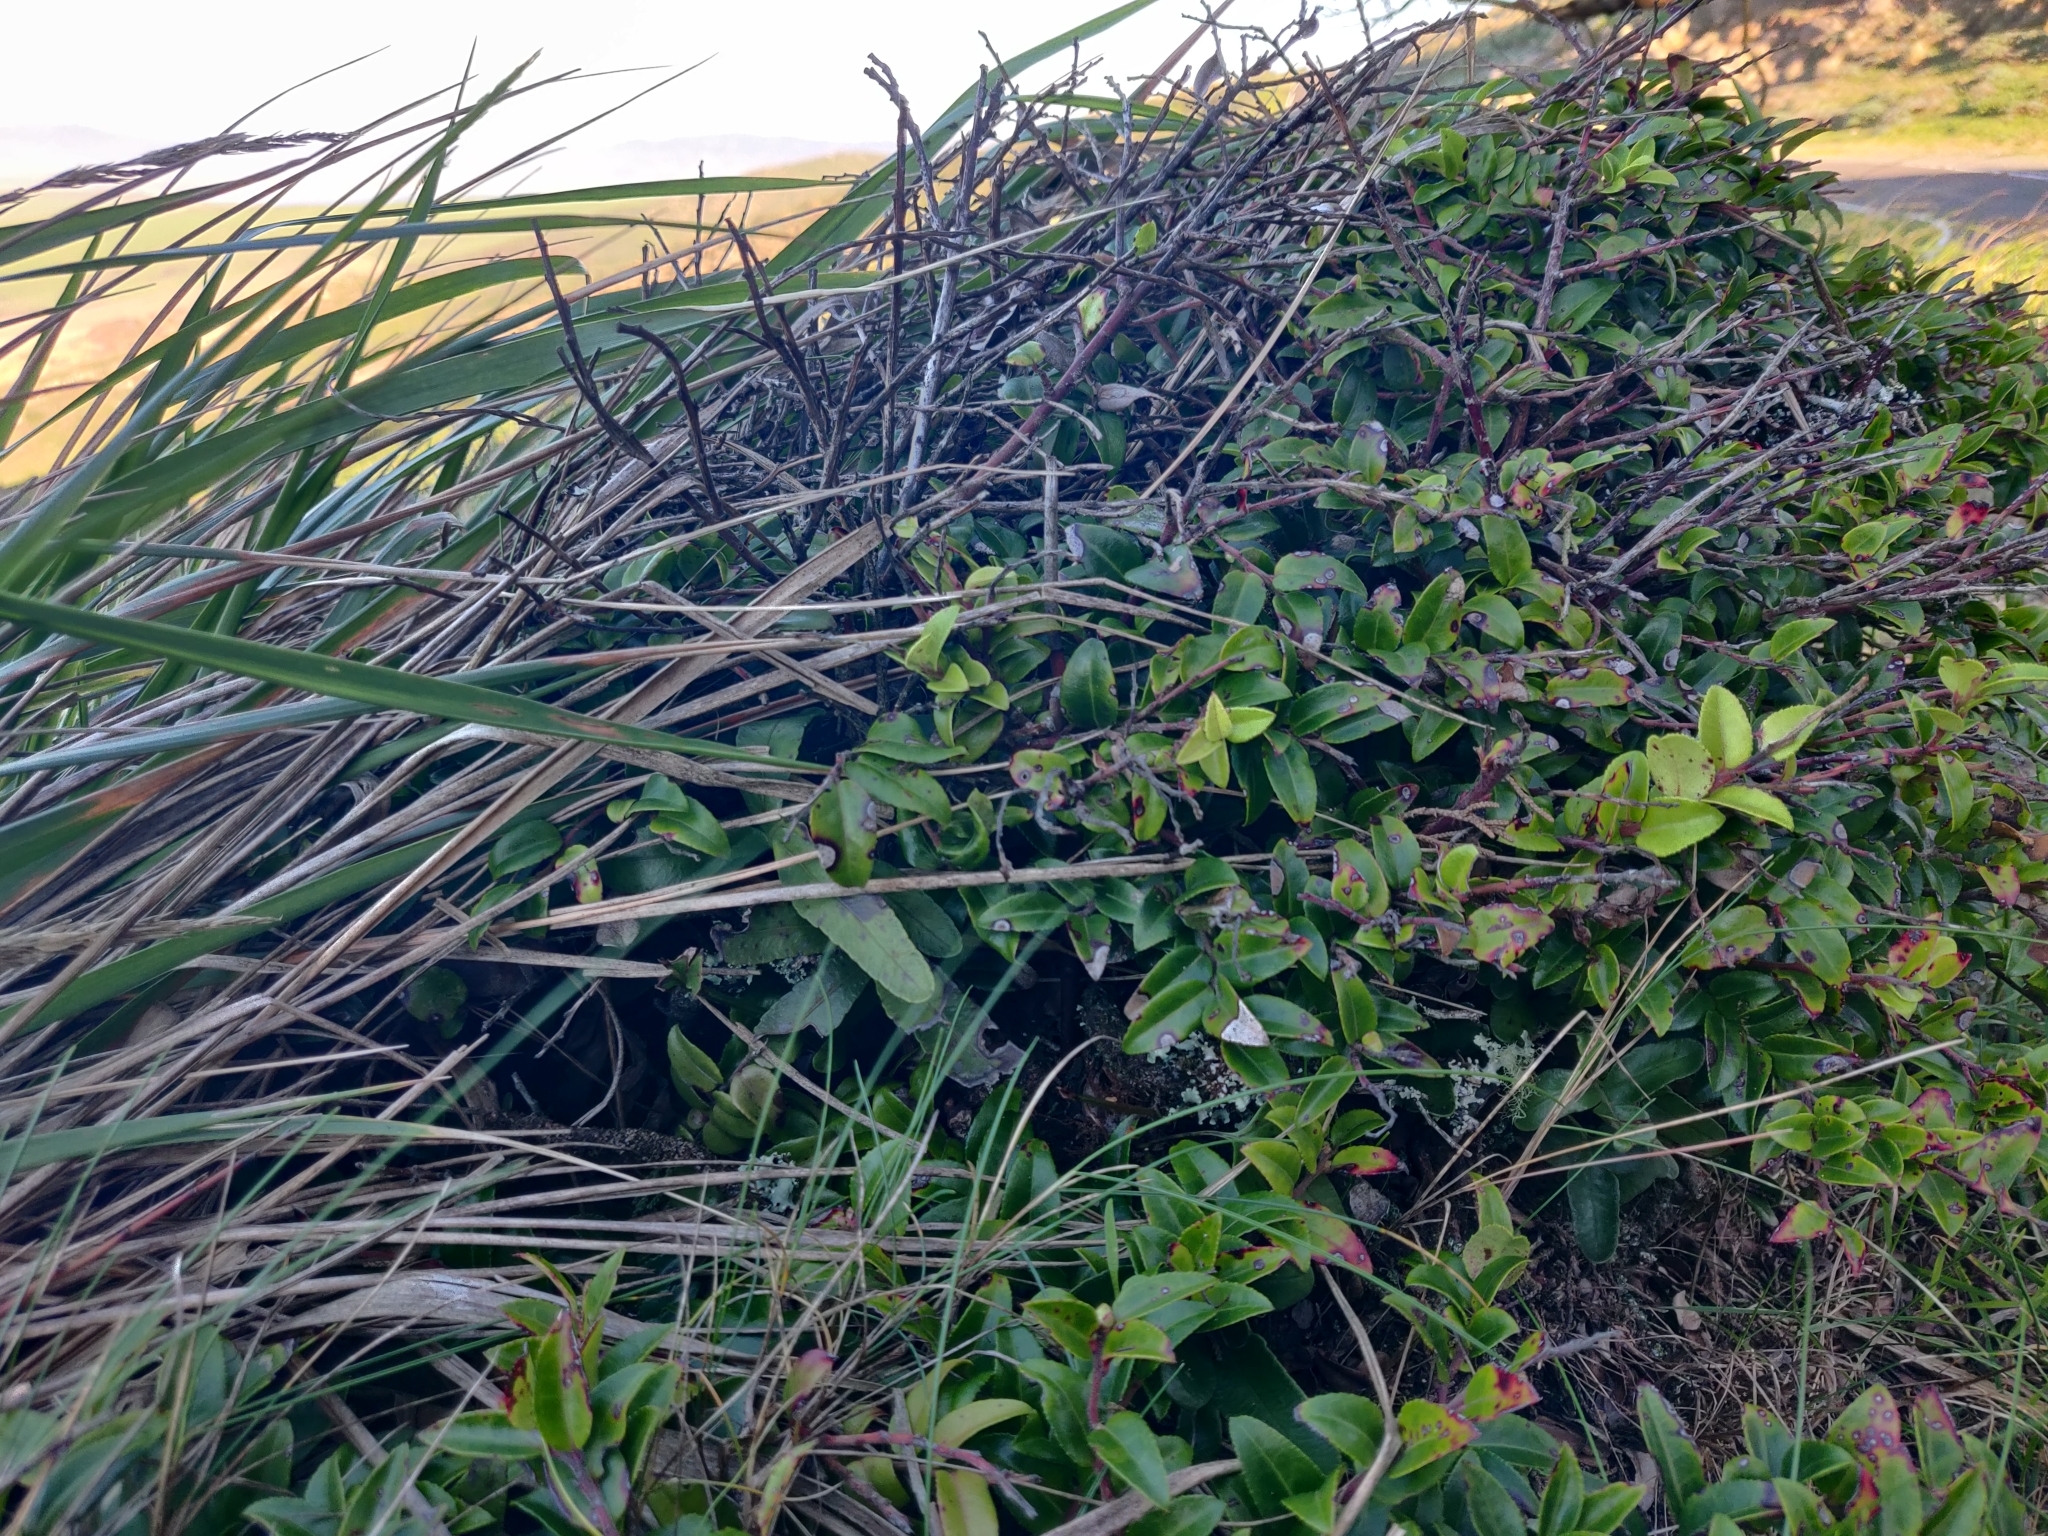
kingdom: Plantae
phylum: Tracheophyta
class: Magnoliopsida
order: Ericales
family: Ericaceae
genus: Vaccinium
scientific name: Vaccinium ovatum
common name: California-huckleberry
